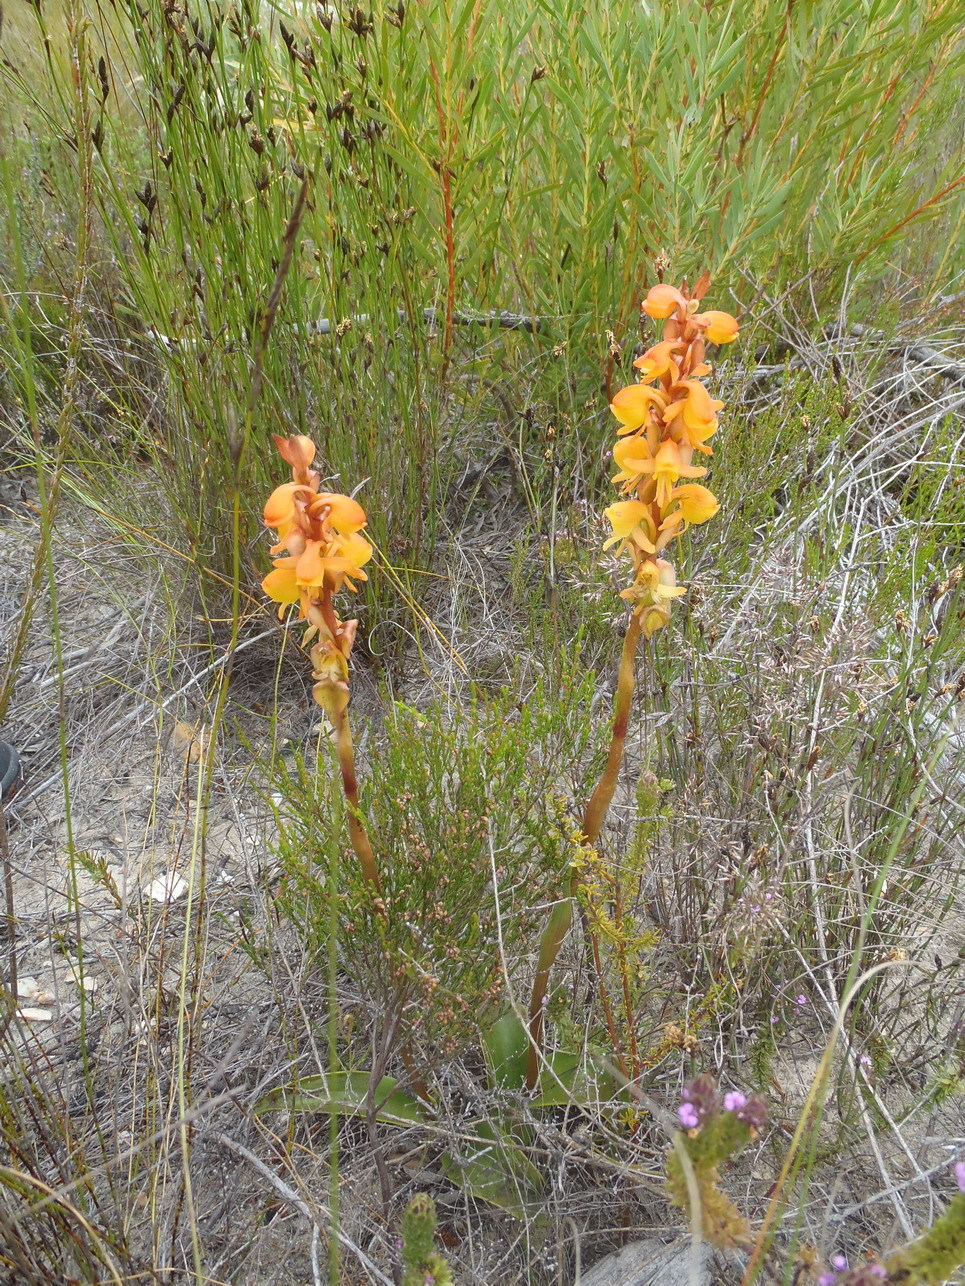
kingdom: Plantae
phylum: Tracheophyta
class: Liliopsida
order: Asparagales
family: Orchidaceae
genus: Satyrium
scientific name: Satyrium coriifolium
